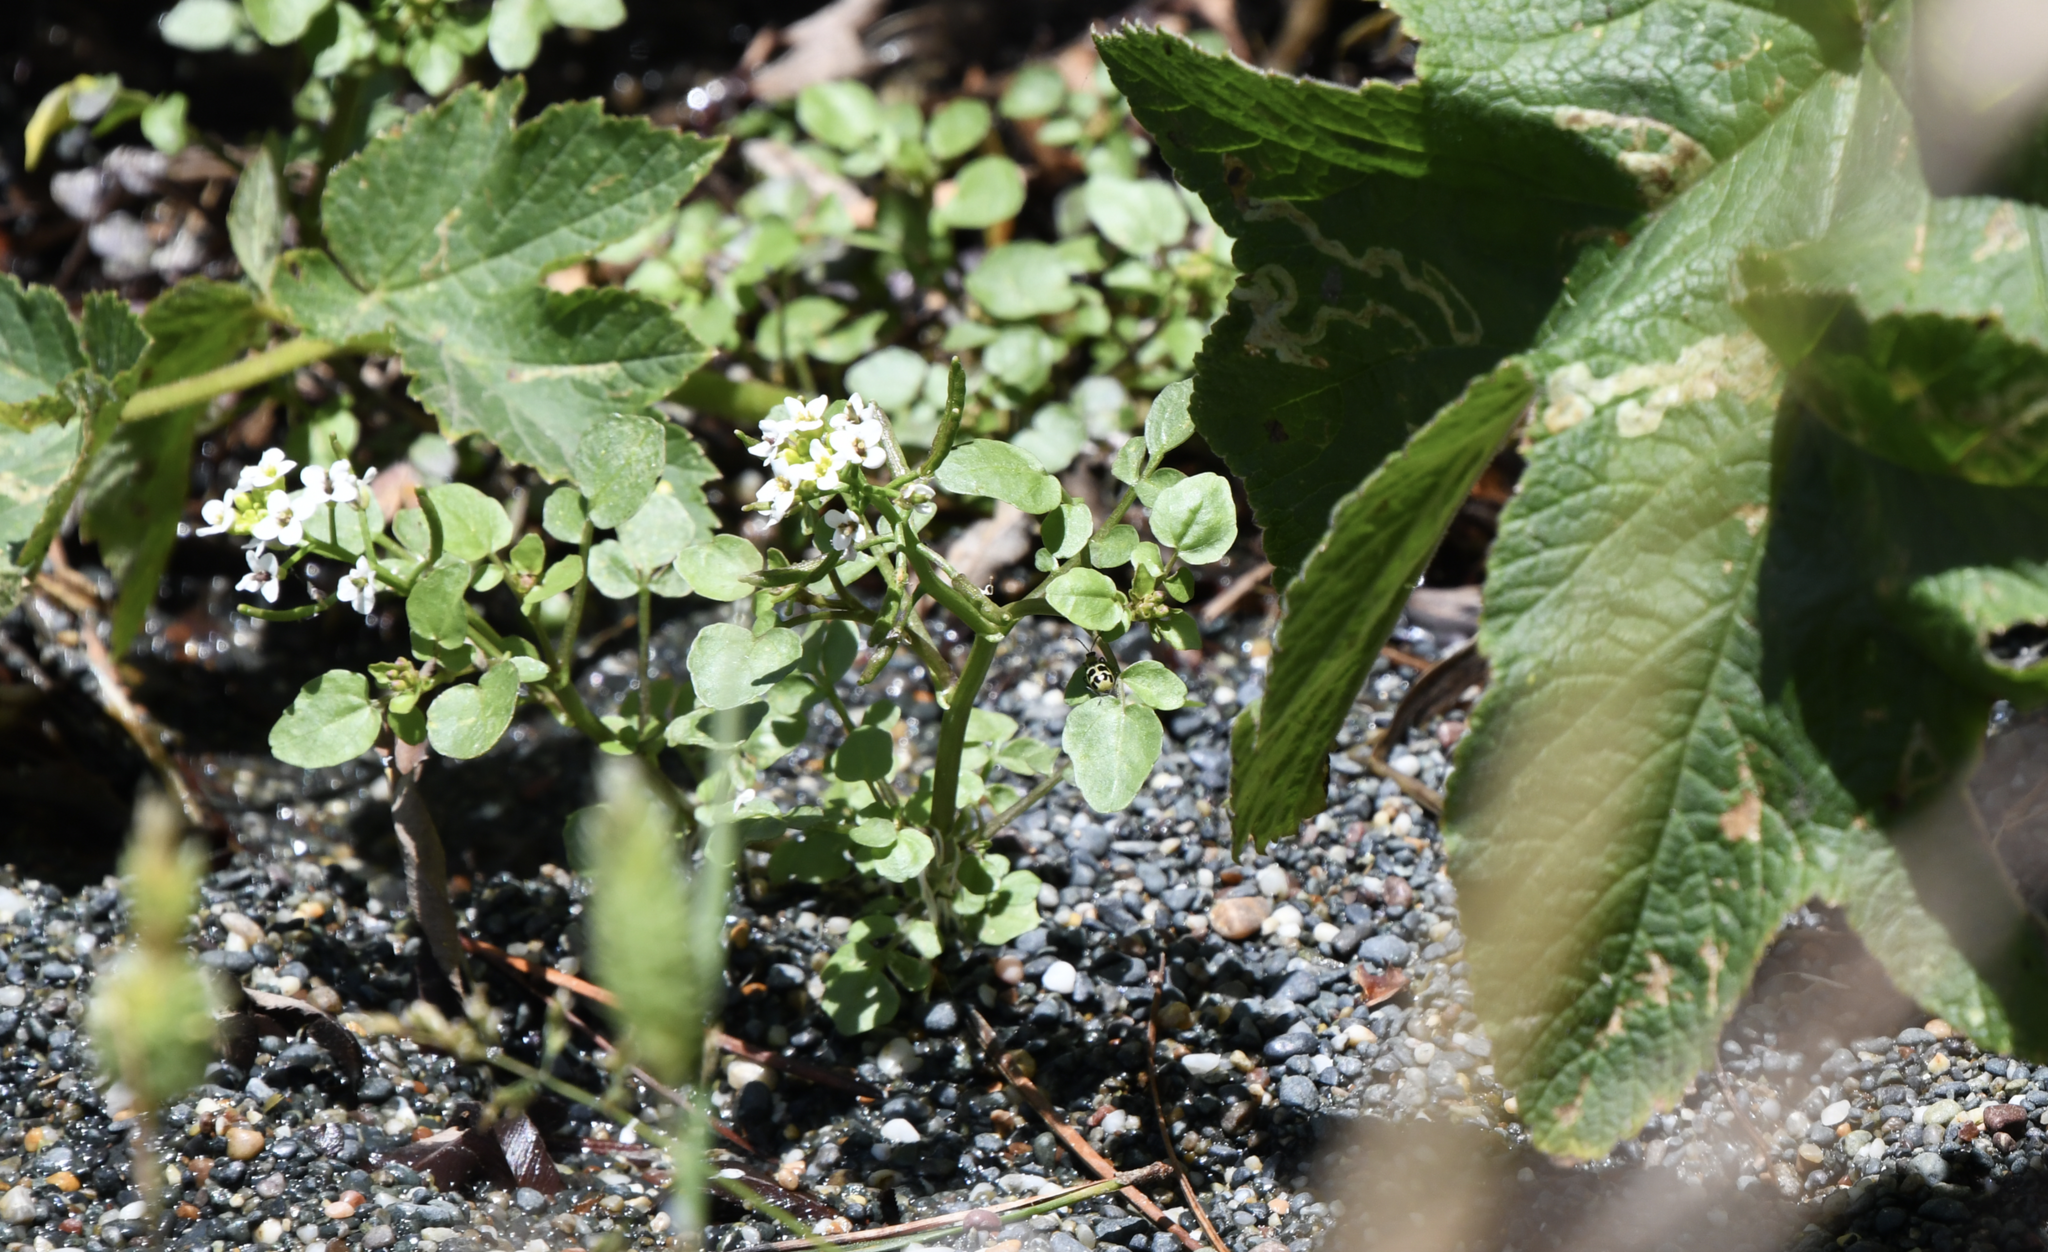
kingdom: Plantae
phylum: Tracheophyta
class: Magnoliopsida
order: Brassicales
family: Brassicaceae
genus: Nasturtium
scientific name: Nasturtium officinale
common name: Watercress
